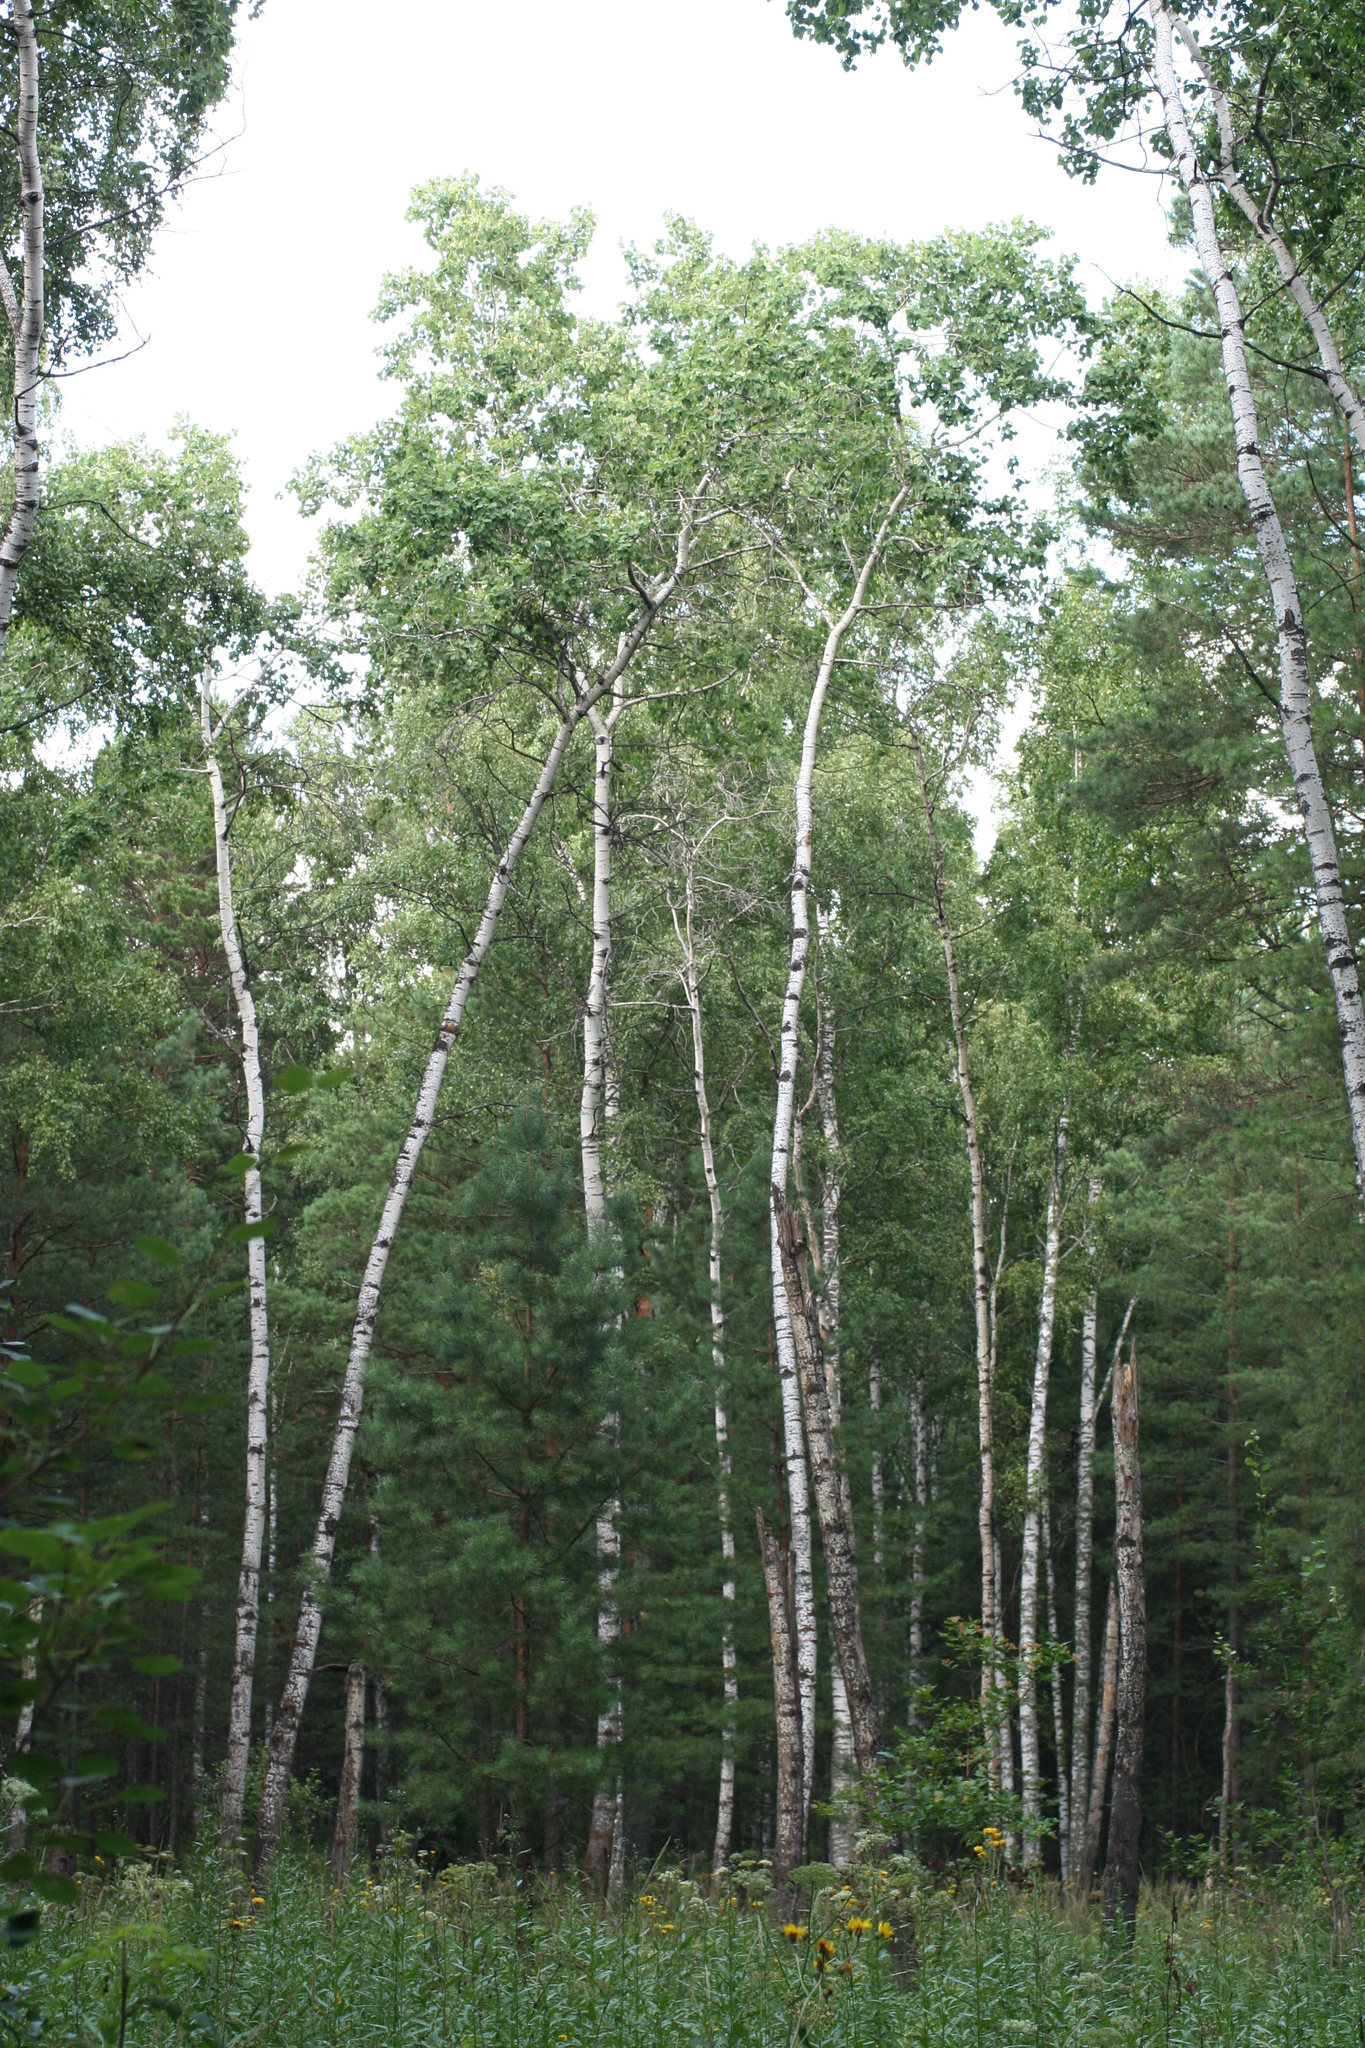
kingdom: Plantae
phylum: Tracheophyta
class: Magnoliopsida
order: Fagales
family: Betulaceae
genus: Betula
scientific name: Betula pendula
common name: Silver birch
